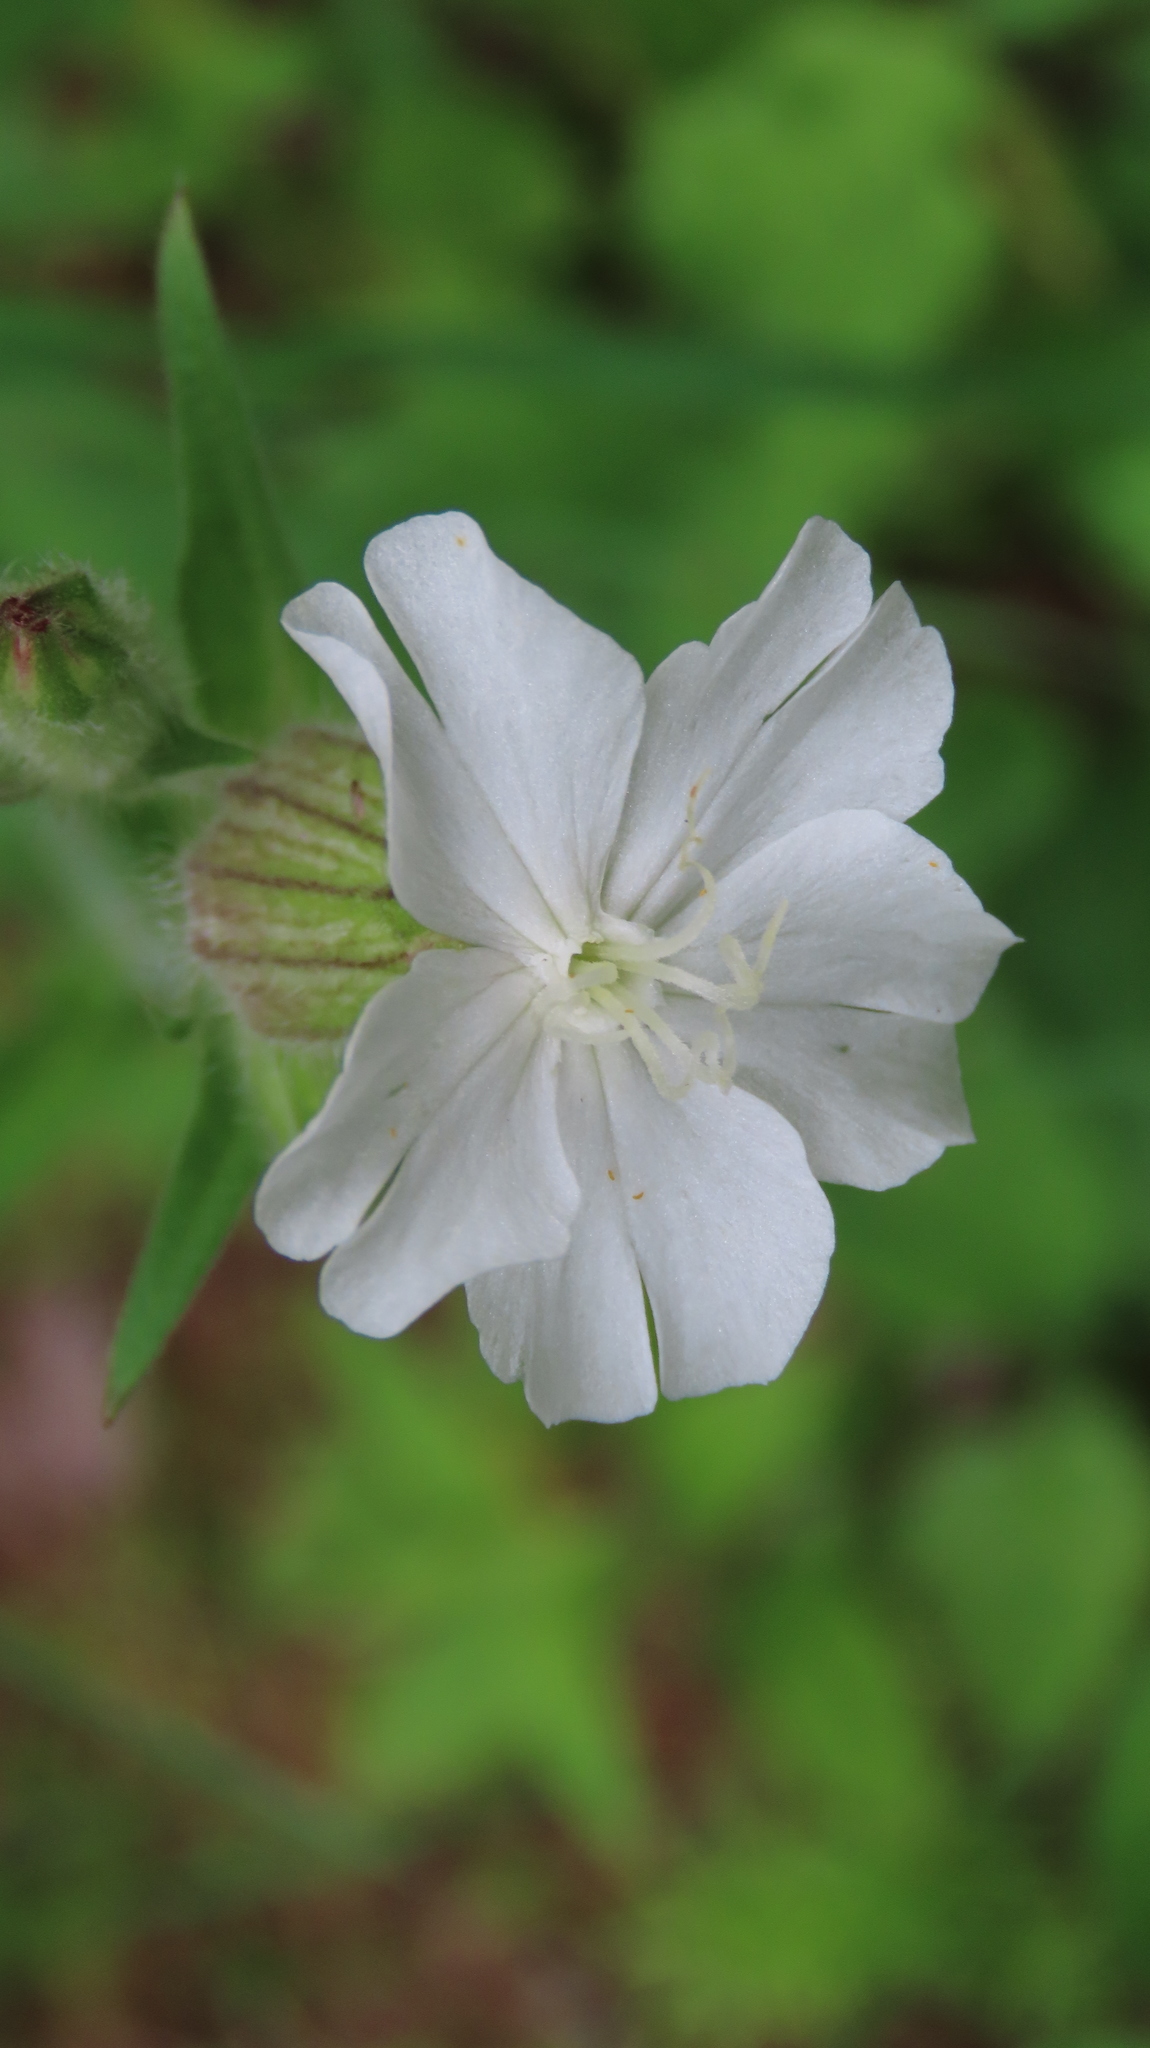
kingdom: Plantae
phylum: Tracheophyta
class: Magnoliopsida
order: Caryophyllales
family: Caryophyllaceae
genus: Silene
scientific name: Silene latifolia
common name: White campion
